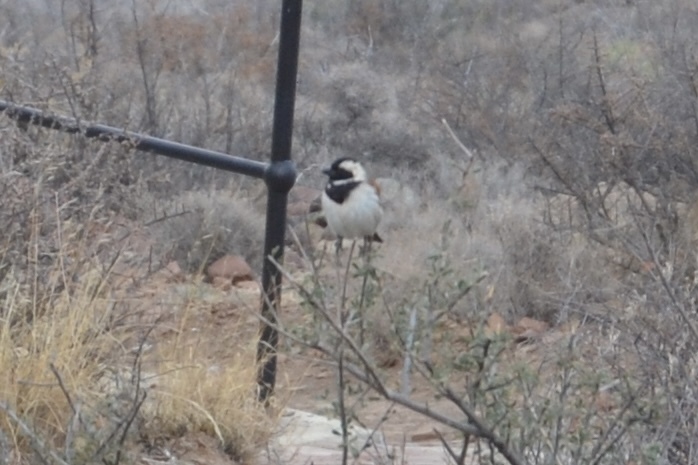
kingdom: Animalia
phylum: Chordata
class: Aves
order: Passeriformes
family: Passeridae
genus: Passer
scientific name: Passer melanurus
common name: Cape sparrow
